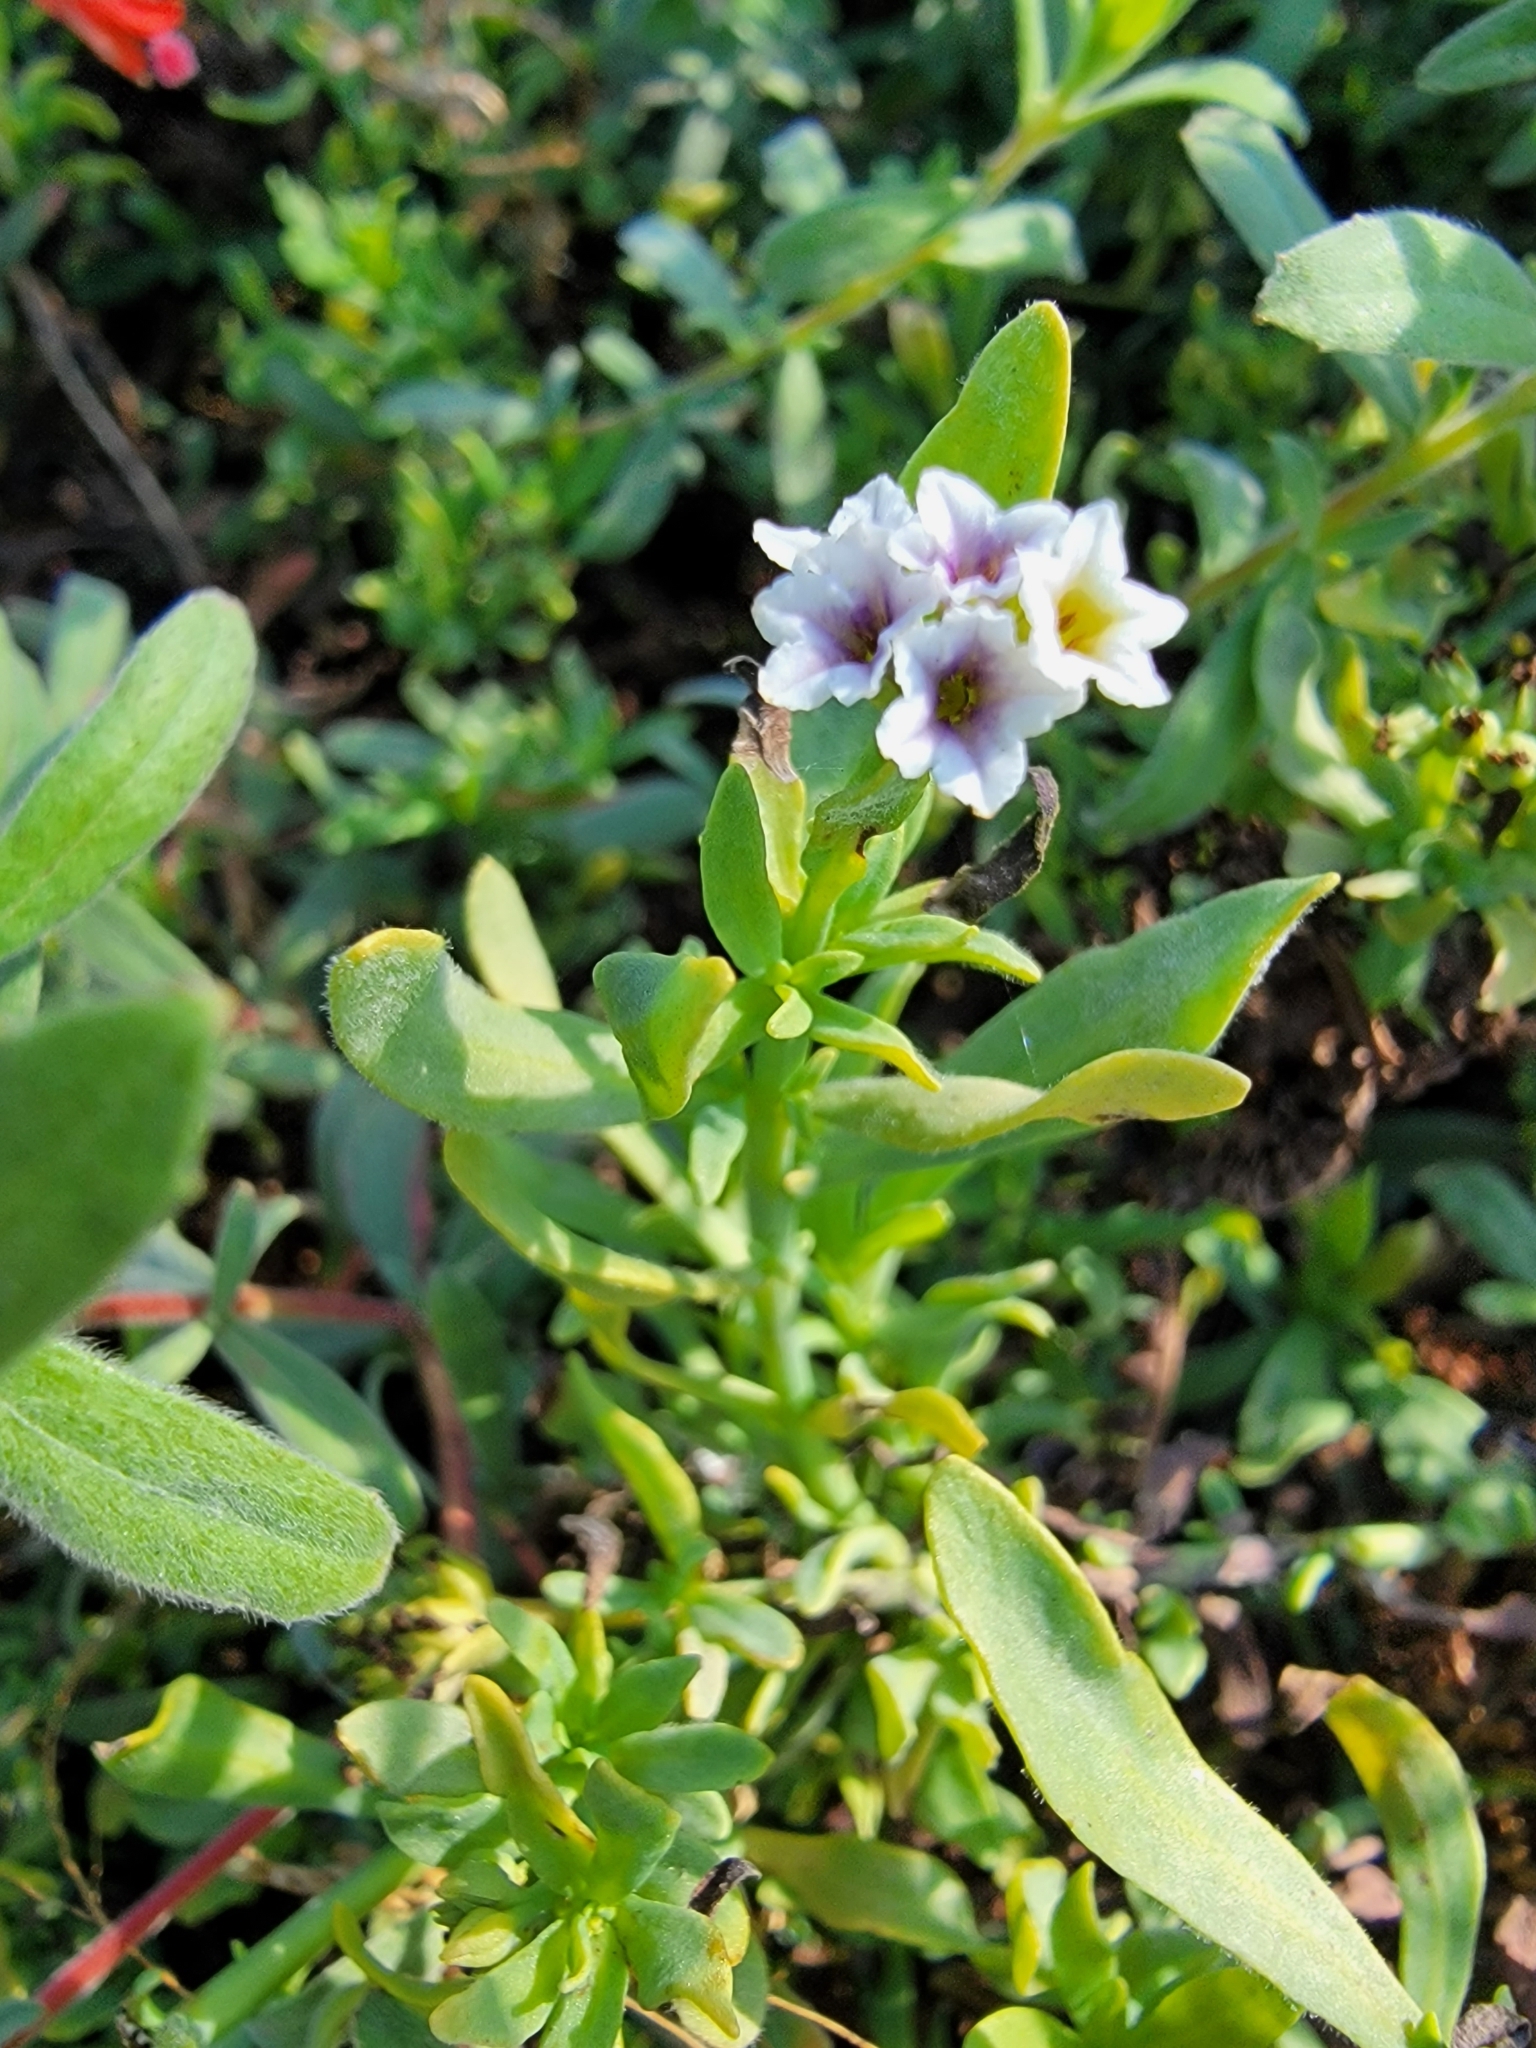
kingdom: Plantae
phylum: Tracheophyta
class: Magnoliopsida
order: Boraginales
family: Heliotropiaceae
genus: Heliotropium
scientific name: Heliotropium curassavicum
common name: Seaside heliotrope
